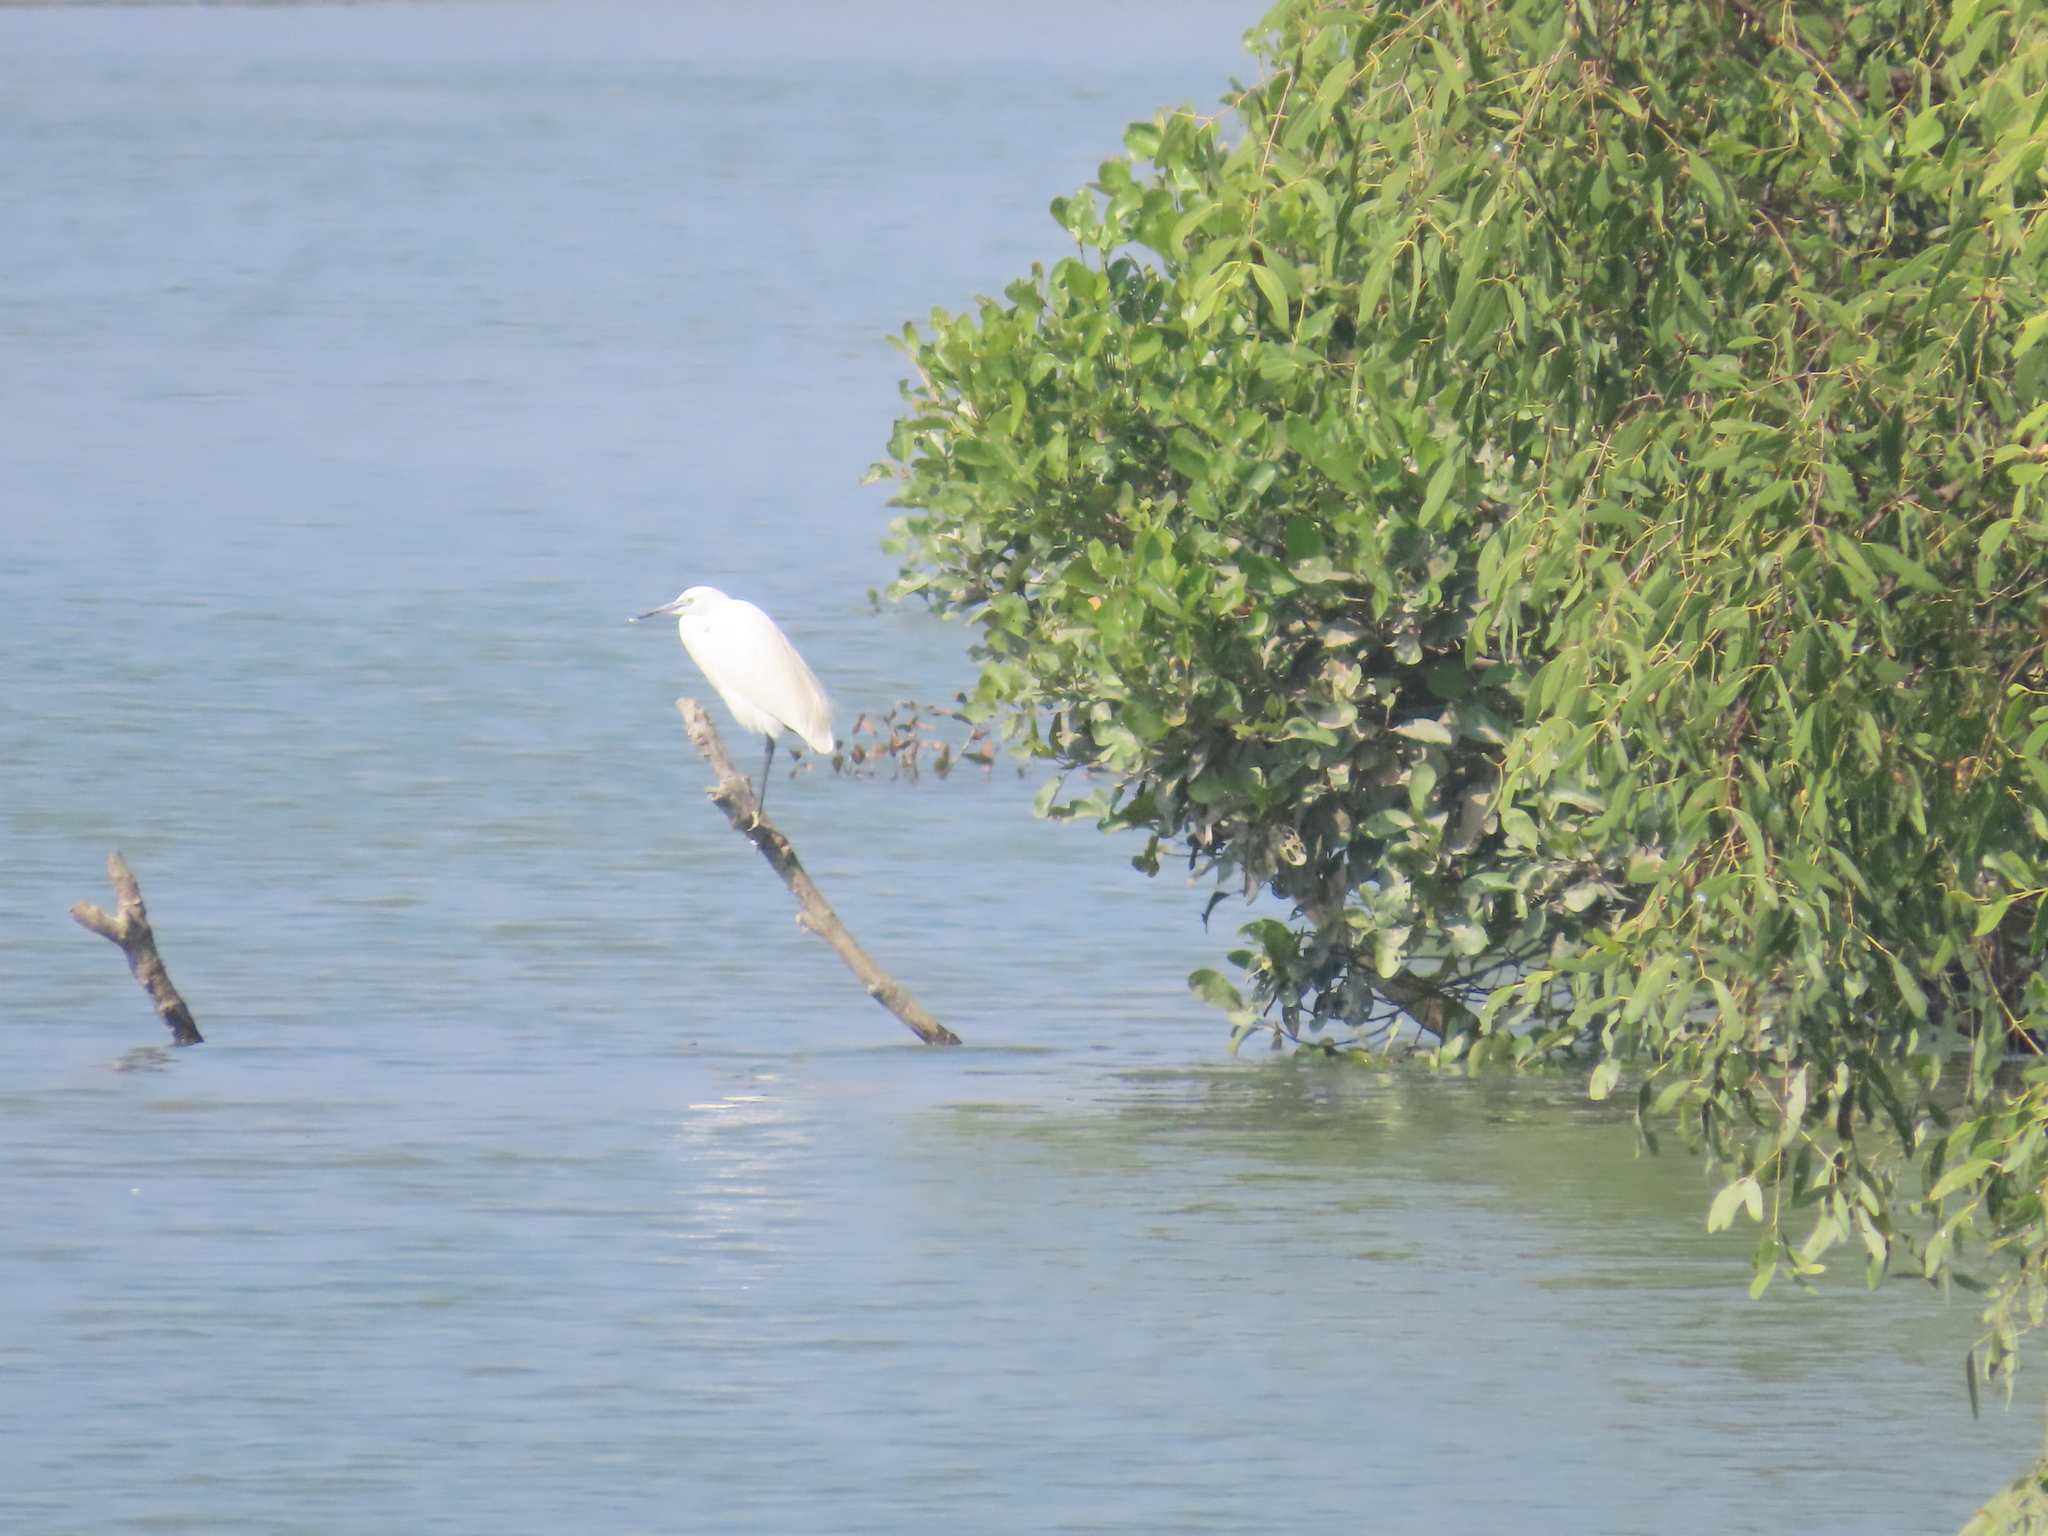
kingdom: Animalia
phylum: Chordata
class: Aves
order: Pelecaniformes
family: Ardeidae
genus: Egretta
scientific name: Egretta garzetta
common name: Little egret
